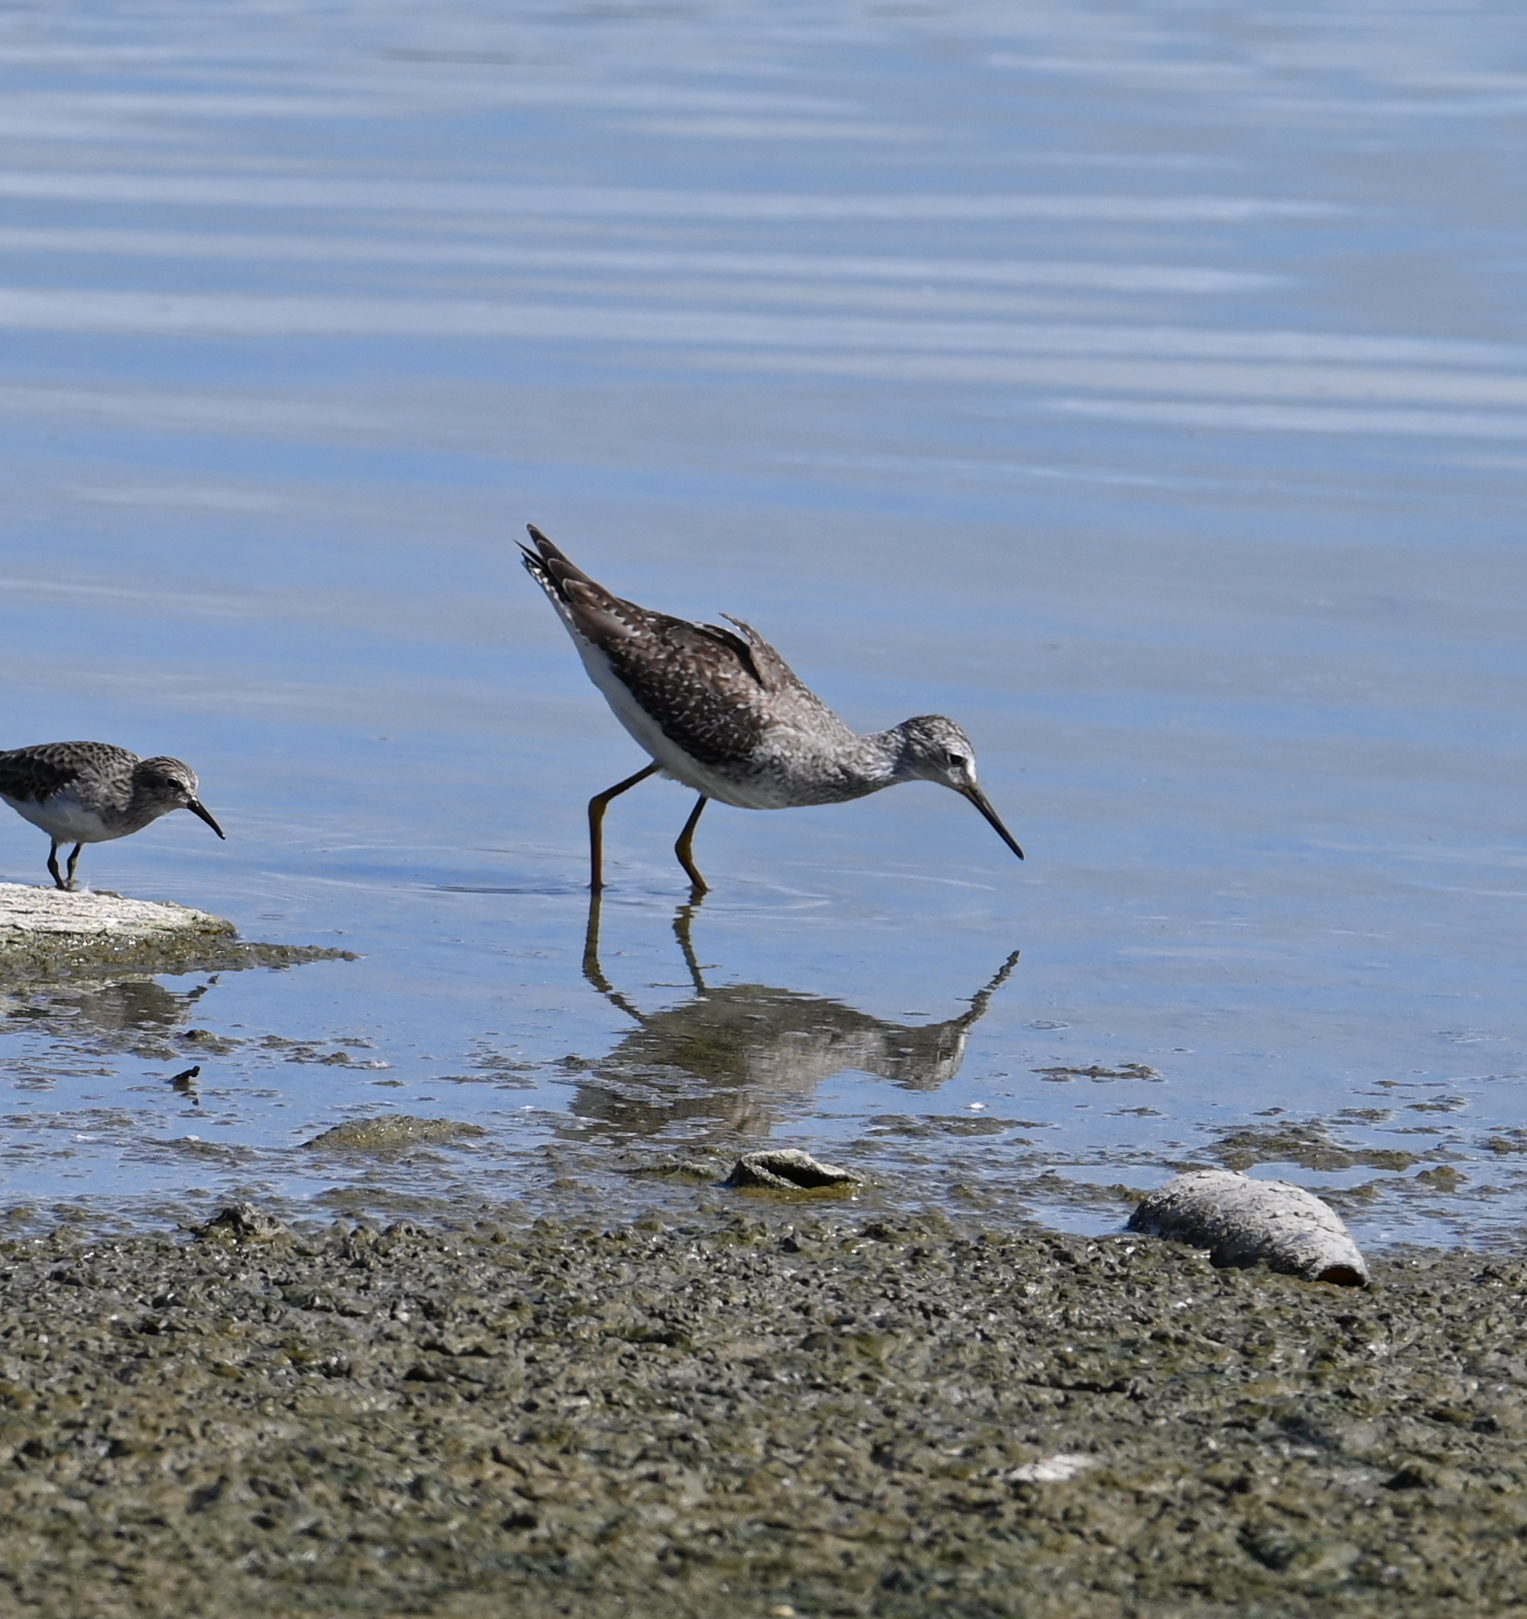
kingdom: Animalia
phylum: Chordata
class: Aves
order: Charadriiformes
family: Scolopacidae
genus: Tringa
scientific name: Tringa flavipes
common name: Lesser yellowlegs
